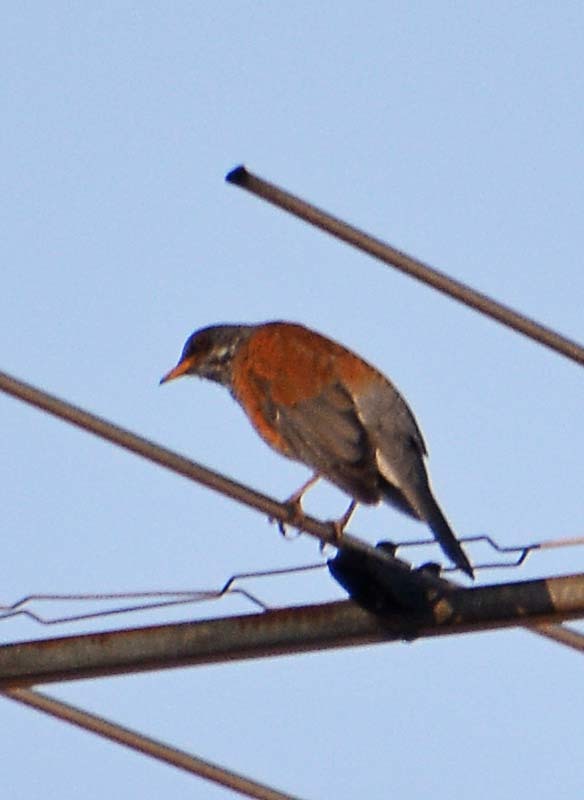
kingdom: Animalia
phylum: Chordata
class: Aves
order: Passeriformes
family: Turdidae
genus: Turdus
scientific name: Turdus rufopalliatus
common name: Rufous-backed robin
